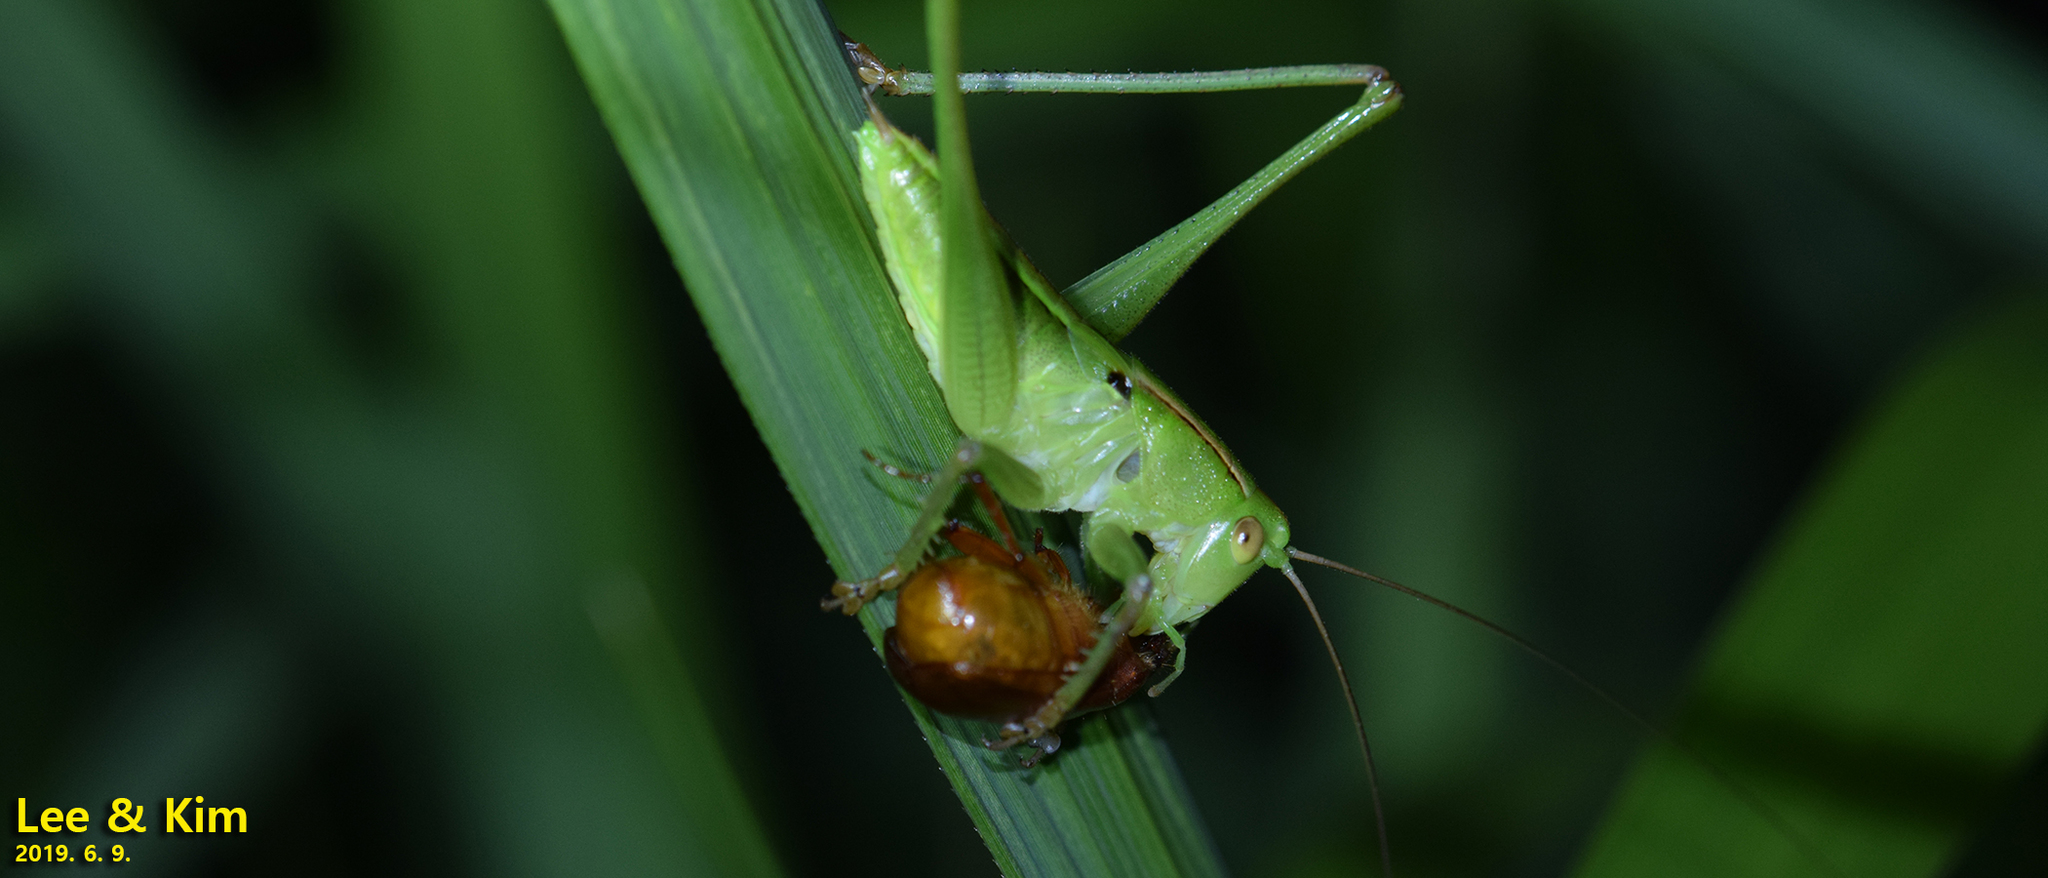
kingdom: Animalia
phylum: Arthropoda
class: Insecta
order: Orthoptera
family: Tettigoniidae
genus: Gampsocleis
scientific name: Gampsocleis ussuriensis
